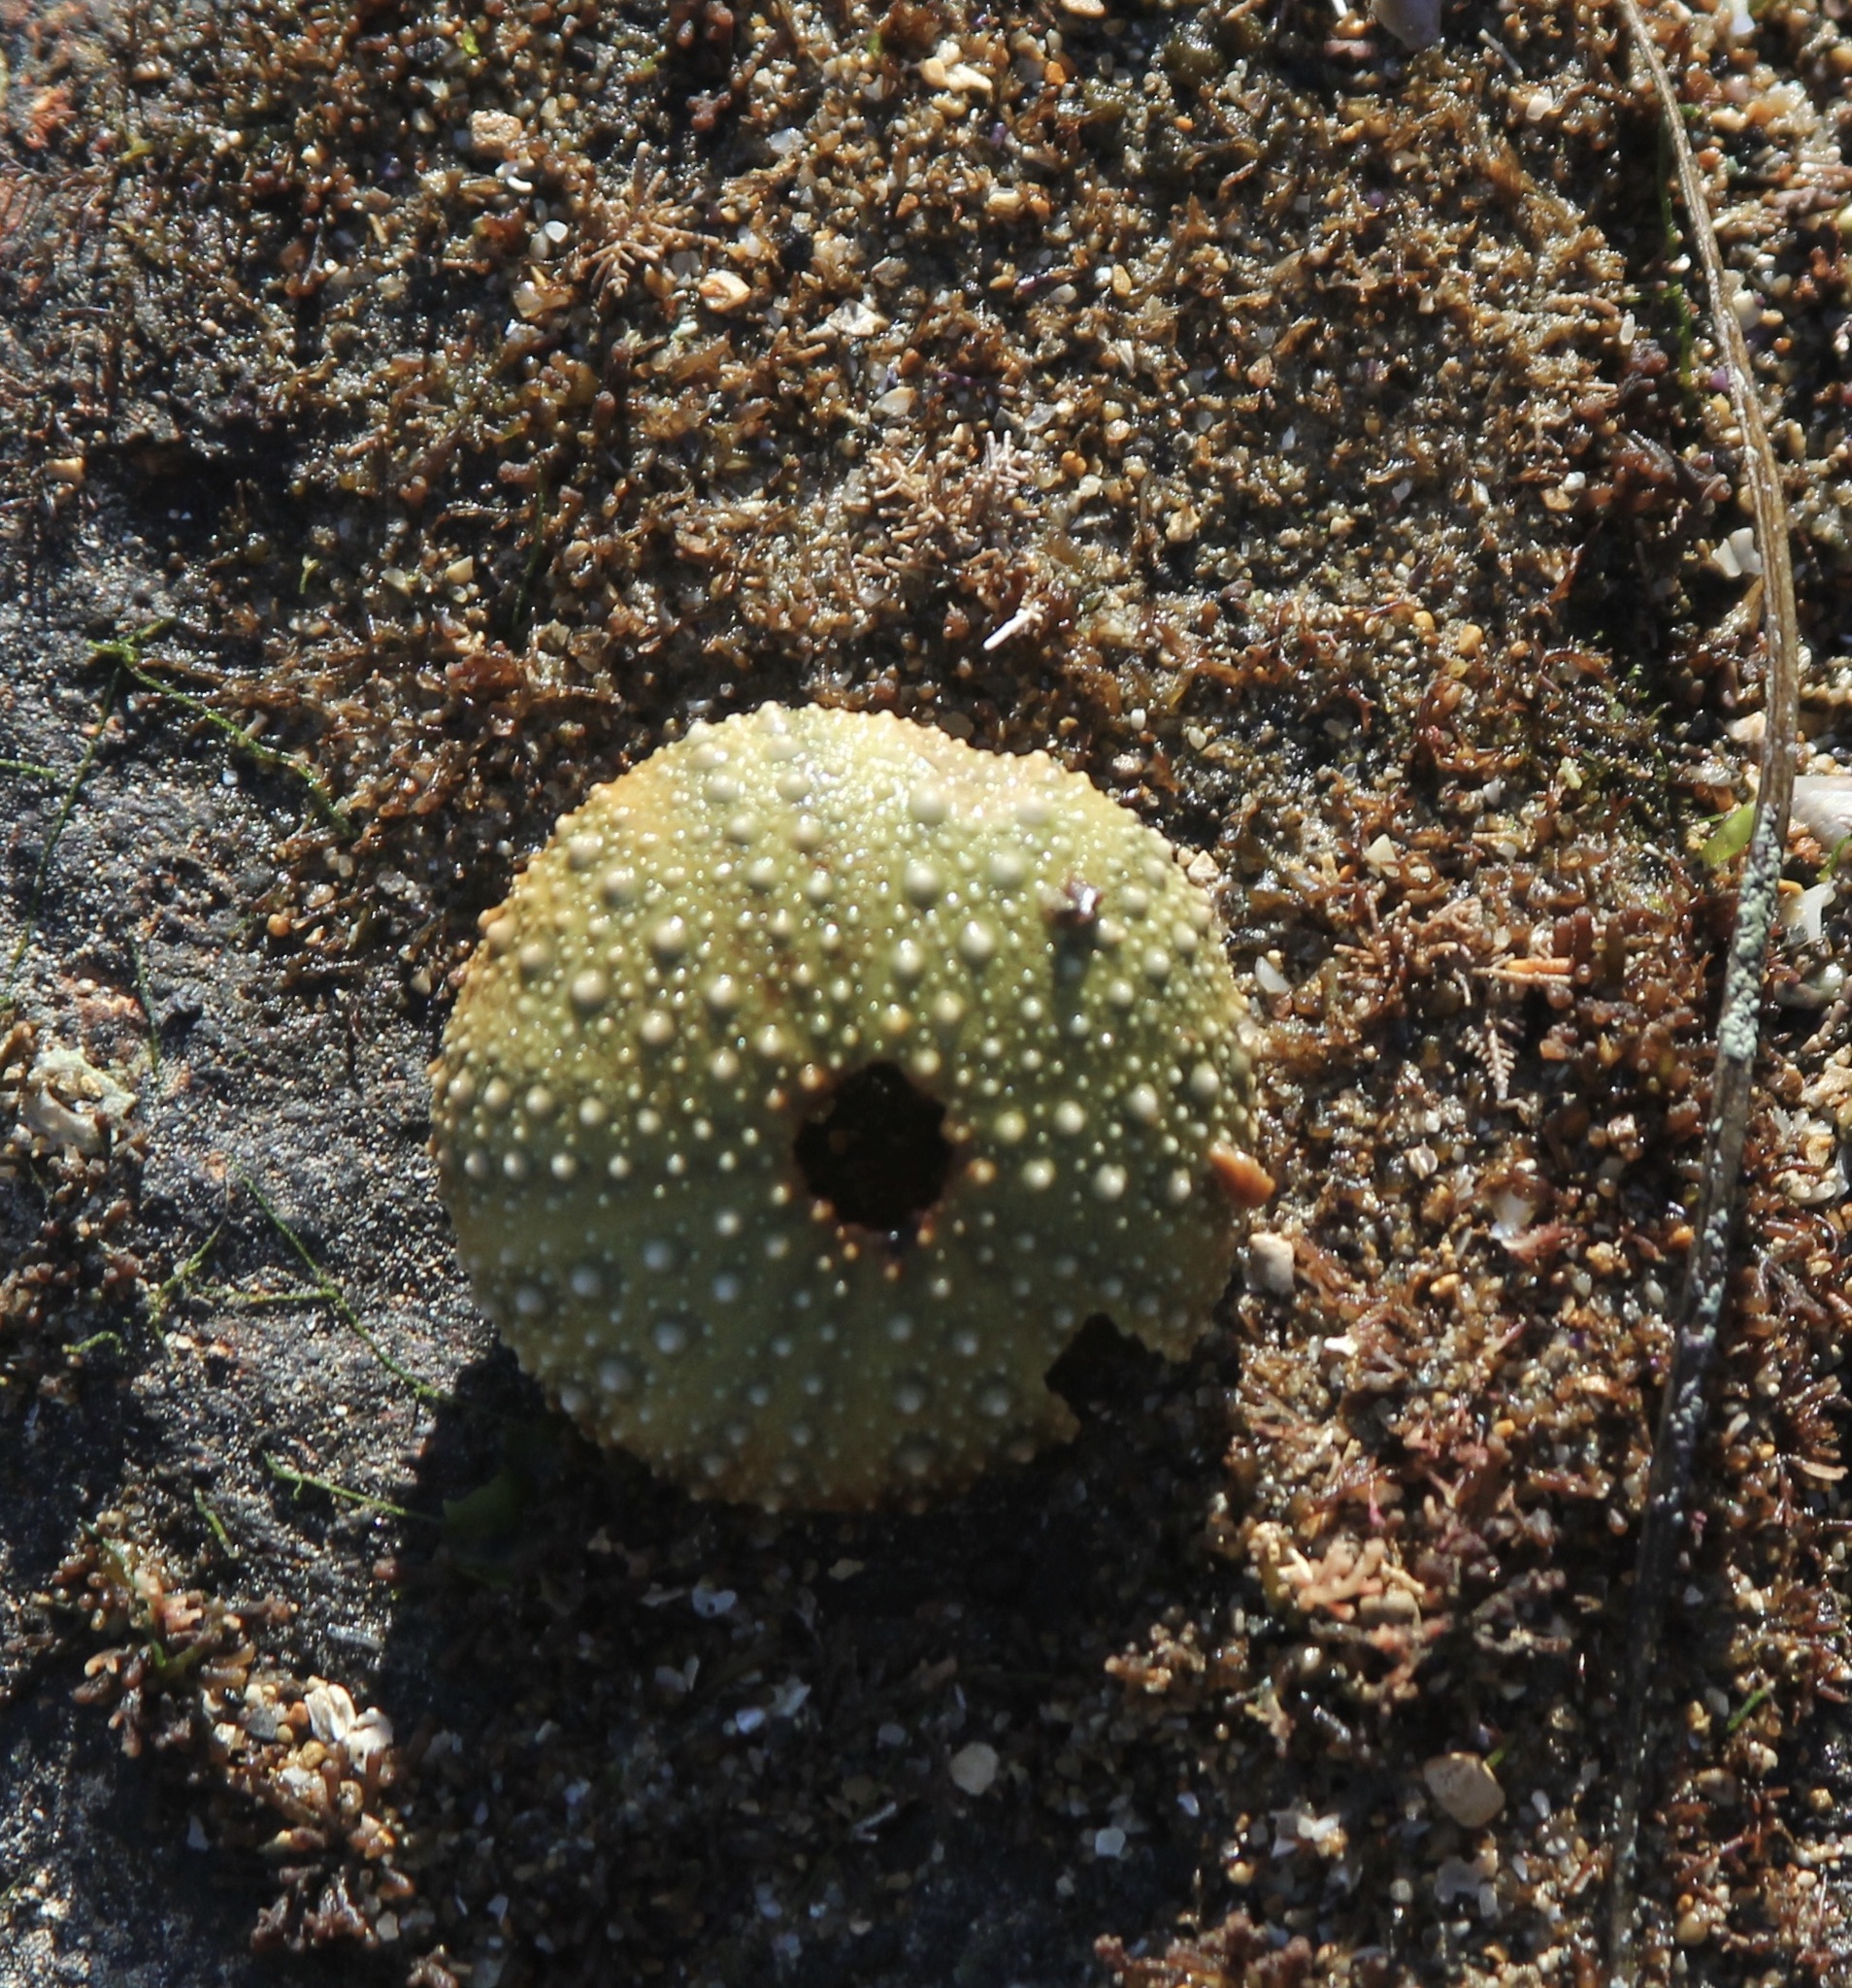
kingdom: Animalia
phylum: Echinodermata
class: Echinoidea
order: Camarodonta
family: Strongylocentrotidae
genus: Strongylocentrotus
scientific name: Strongylocentrotus purpuratus
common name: Purple sea urchin
